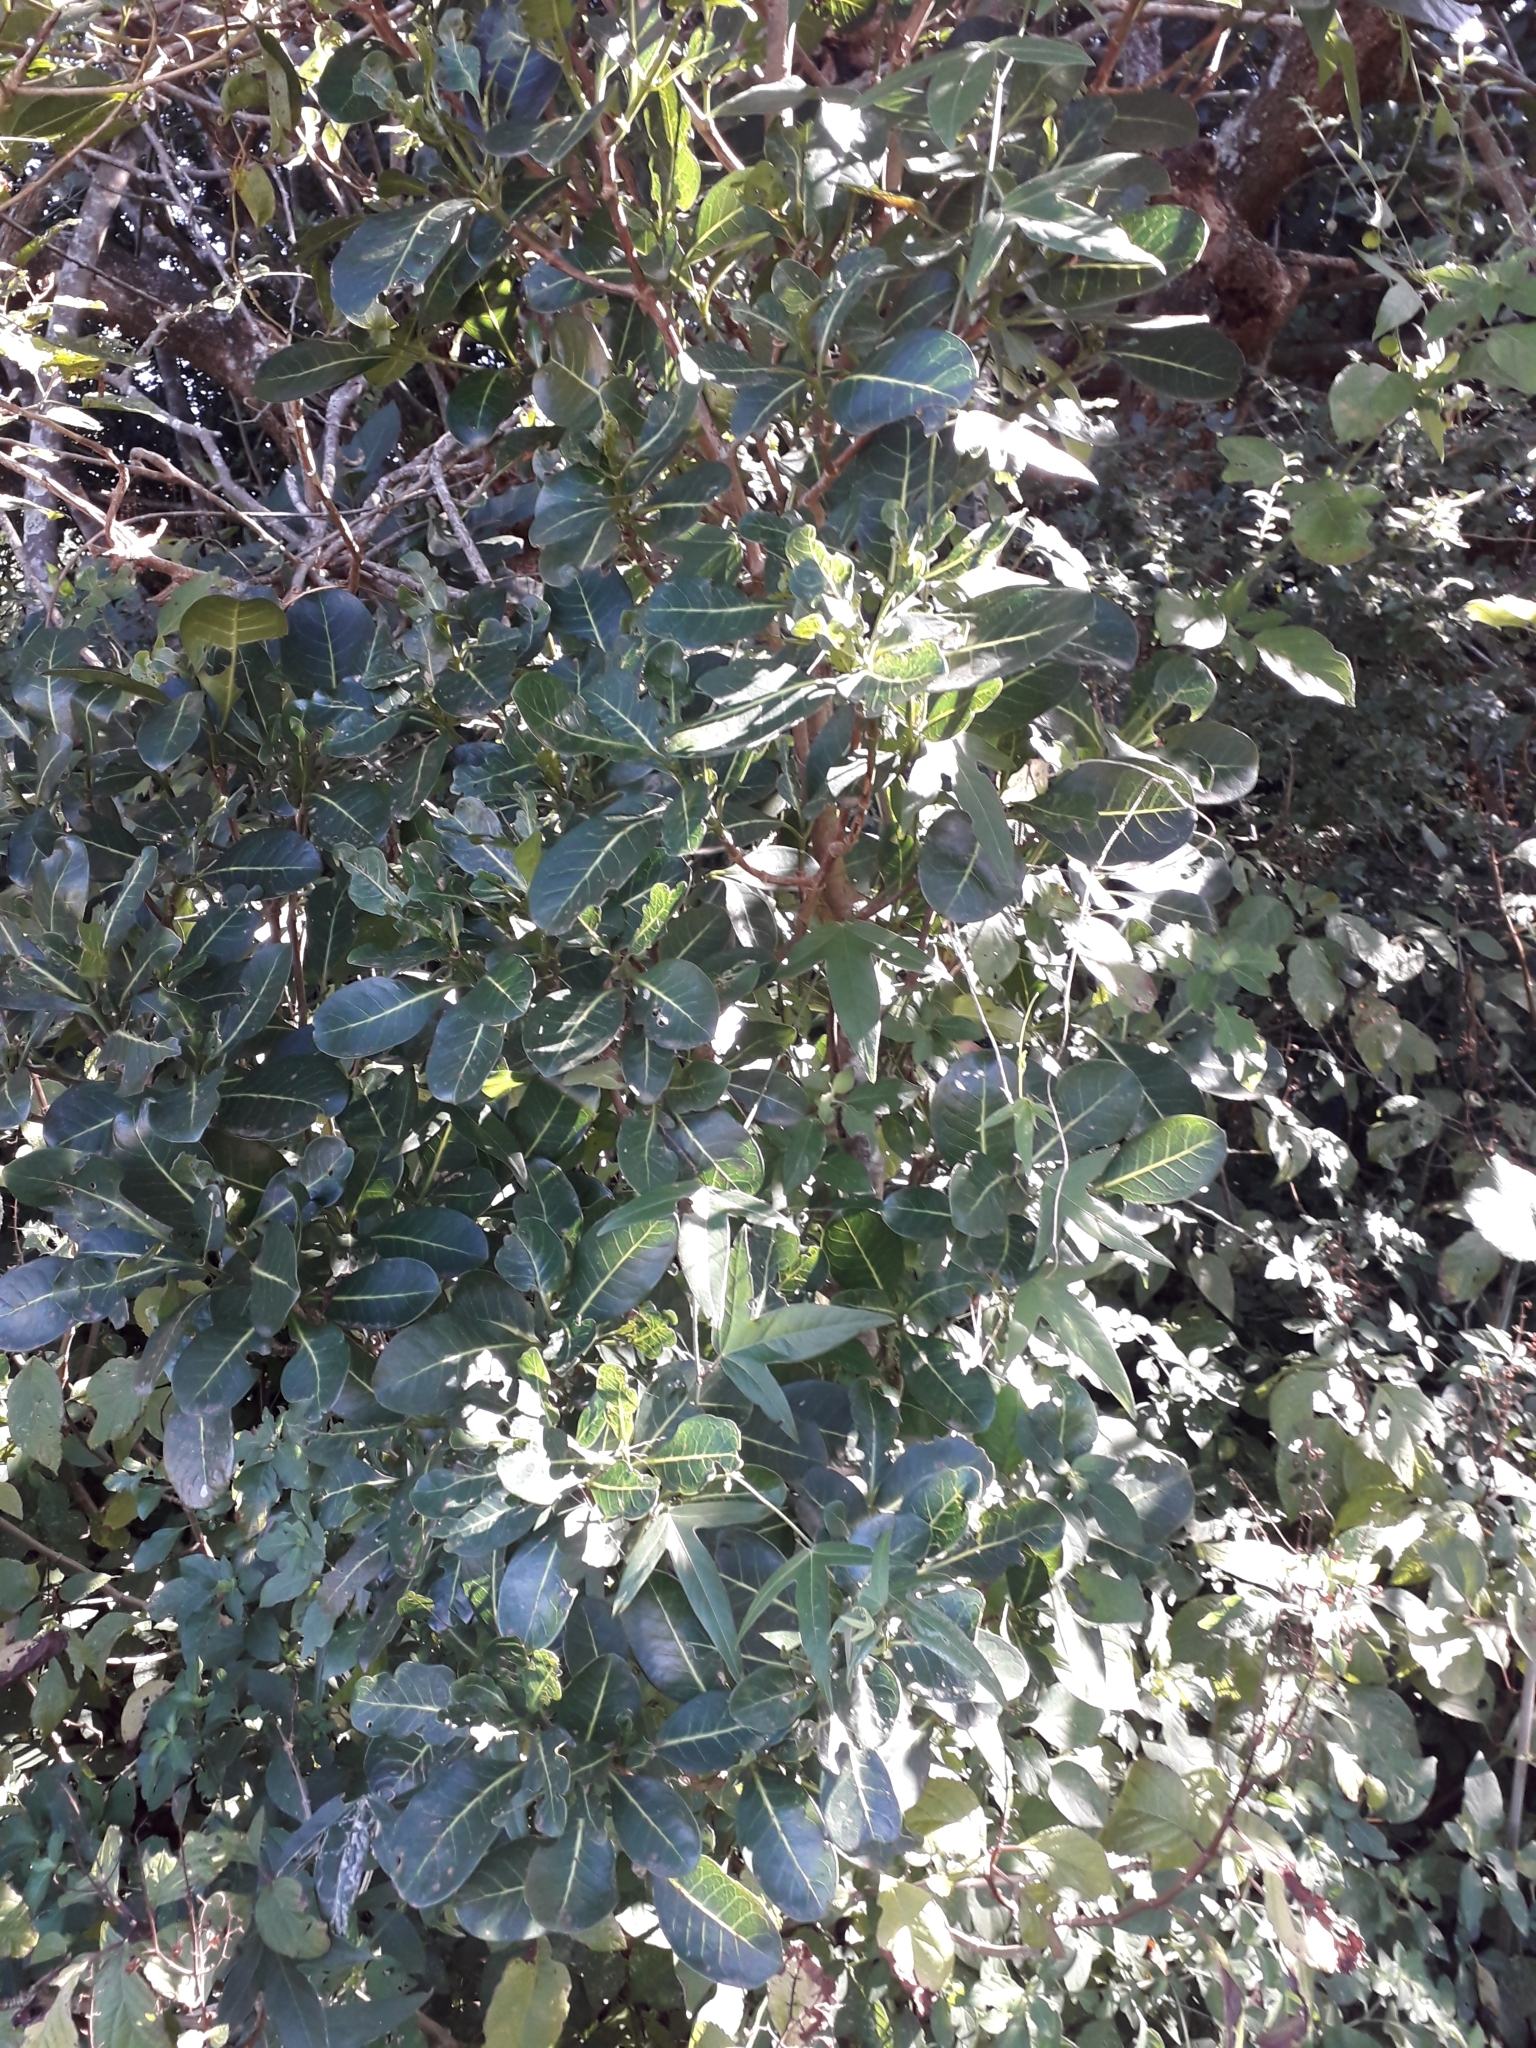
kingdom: Plantae
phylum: Tracheophyta
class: Magnoliopsida
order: Gentianales
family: Rubiaceae
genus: Psychotria
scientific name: Psychotria capensis
